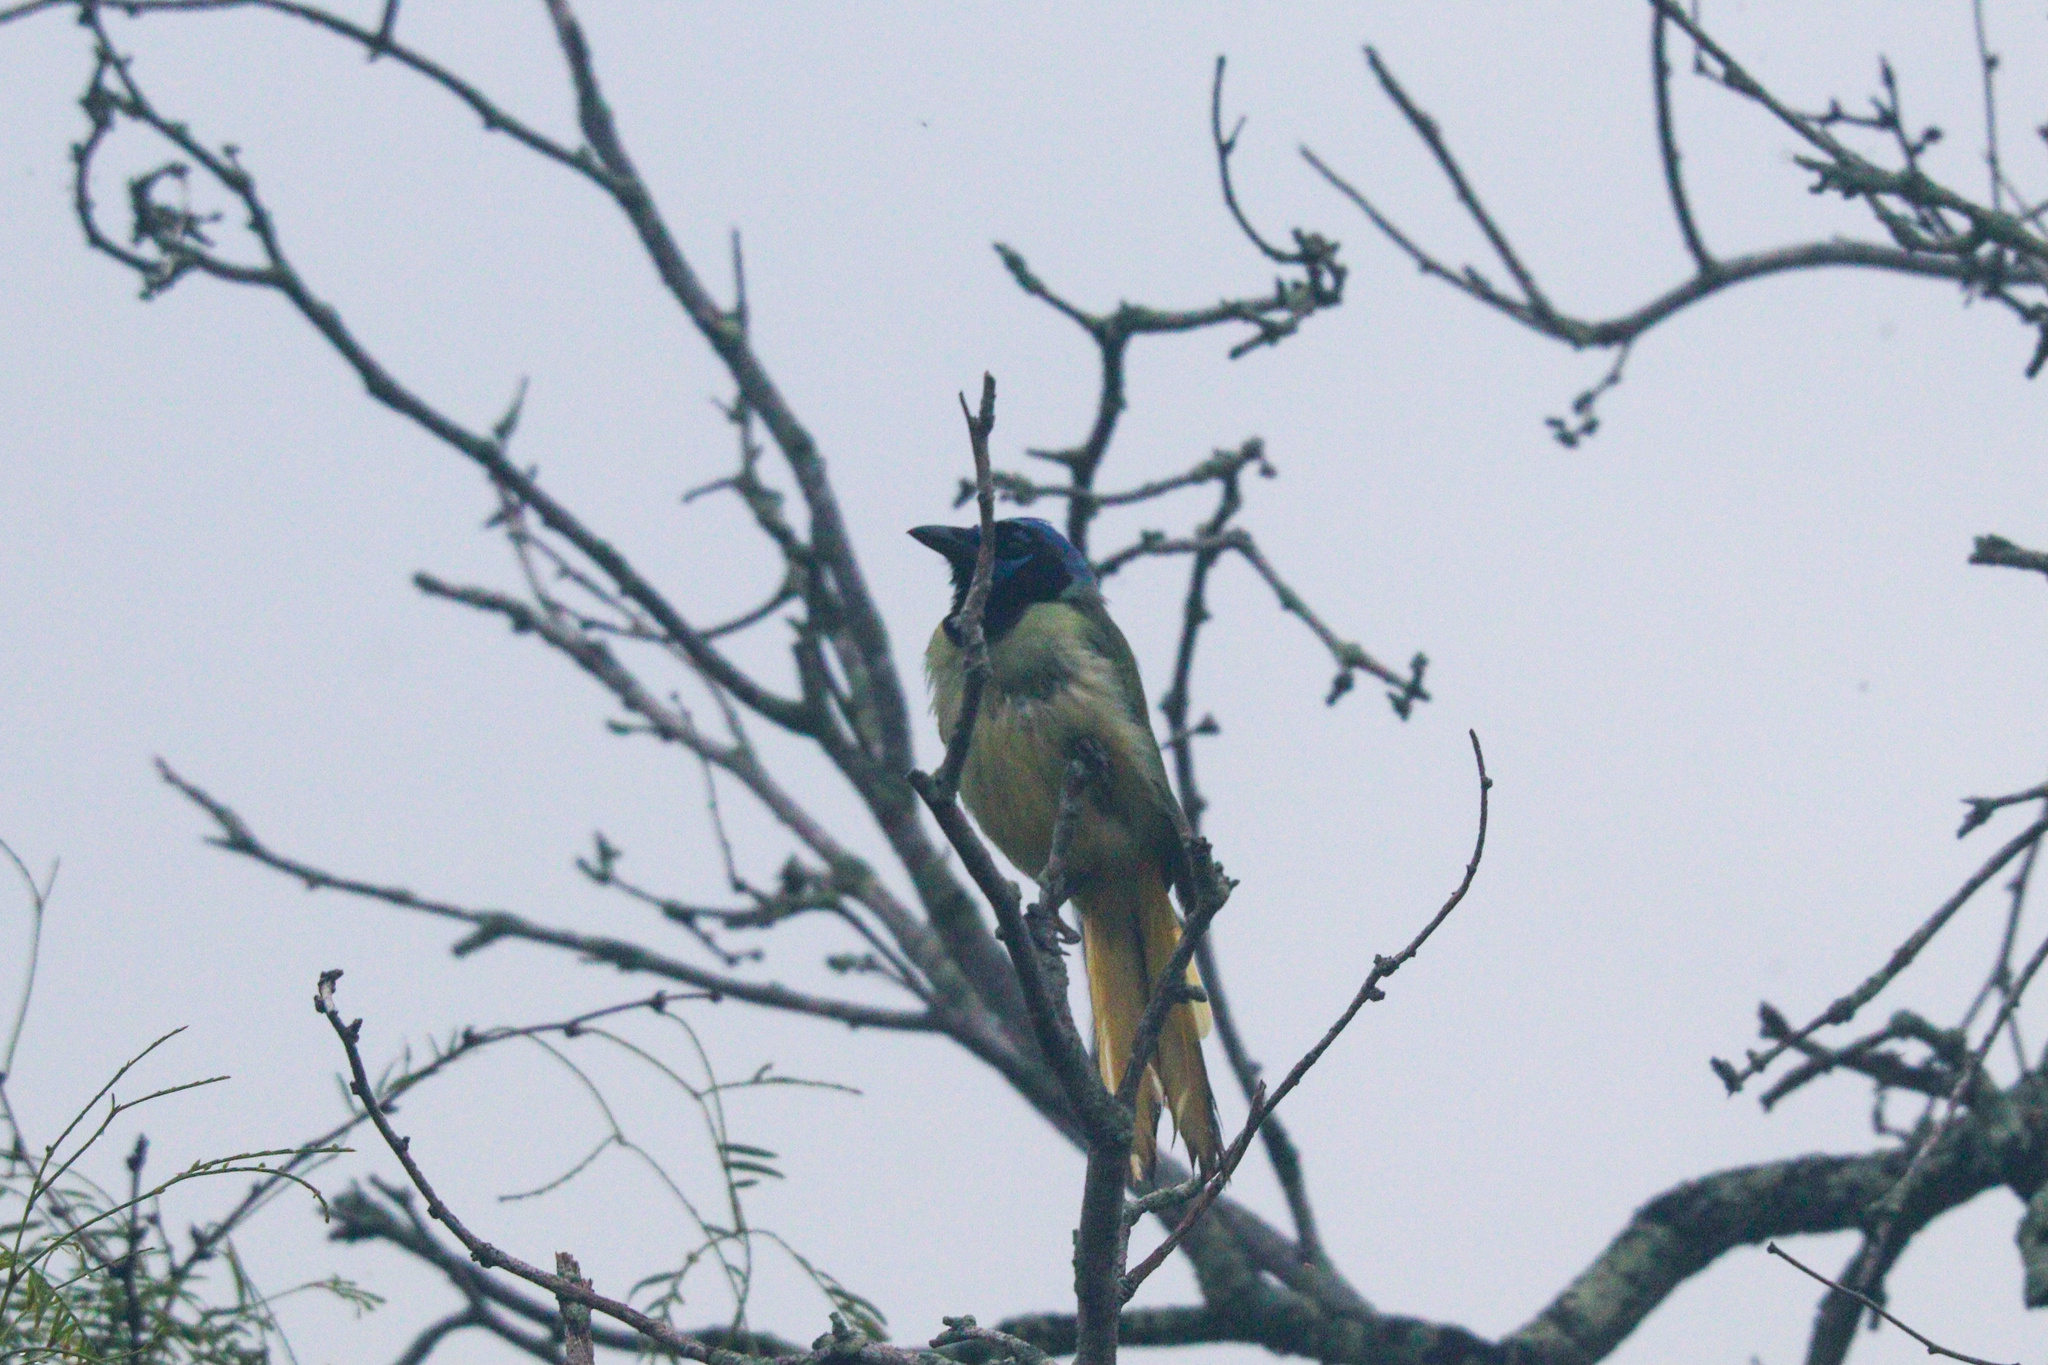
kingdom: Animalia
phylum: Chordata
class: Aves
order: Passeriformes
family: Corvidae
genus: Cyanocorax
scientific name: Cyanocorax yncas
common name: Green jay
